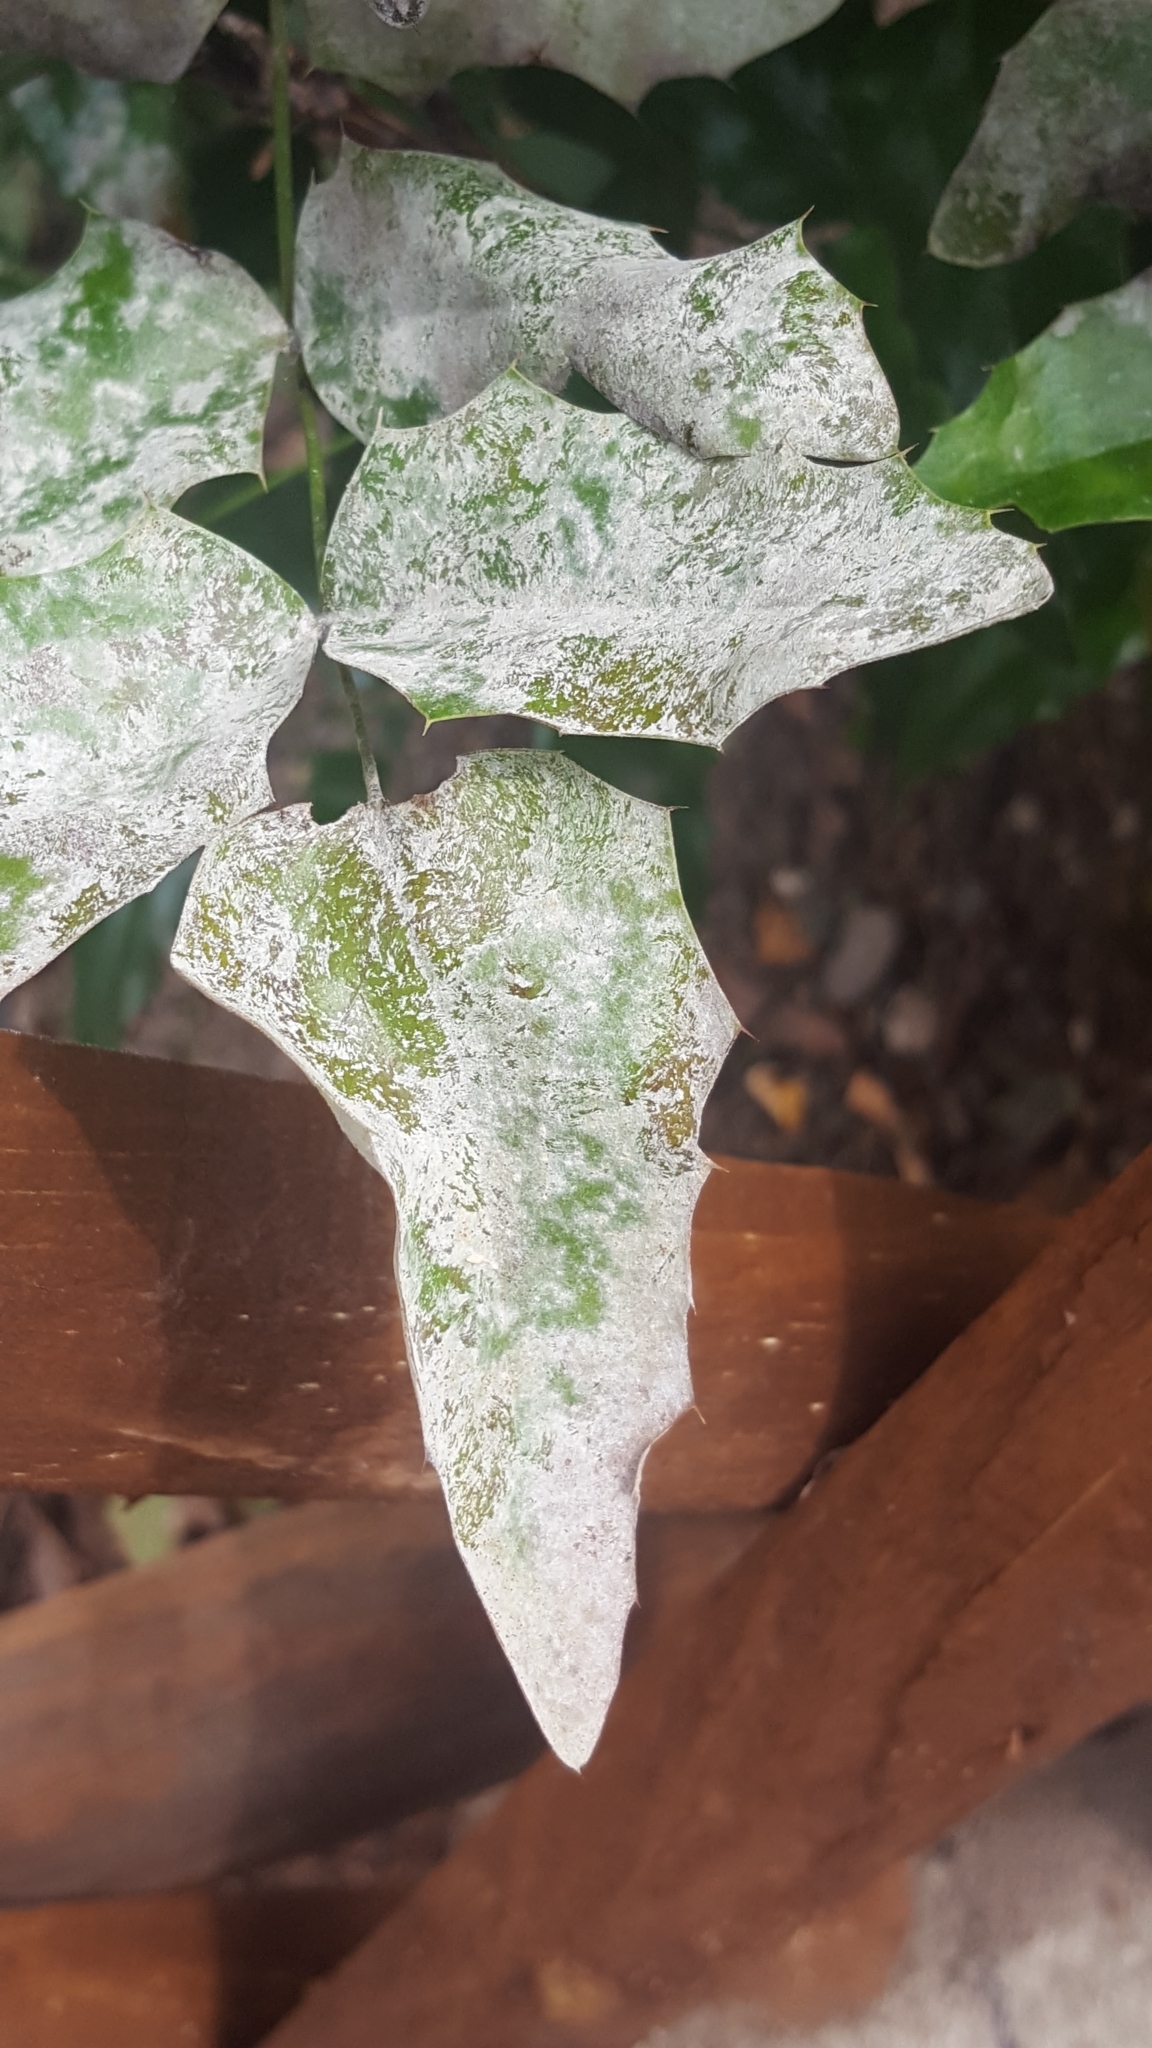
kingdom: Fungi
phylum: Ascomycota
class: Leotiomycetes
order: Helotiales
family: Erysiphaceae
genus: Erysiphe
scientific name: Erysiphe berberidis
